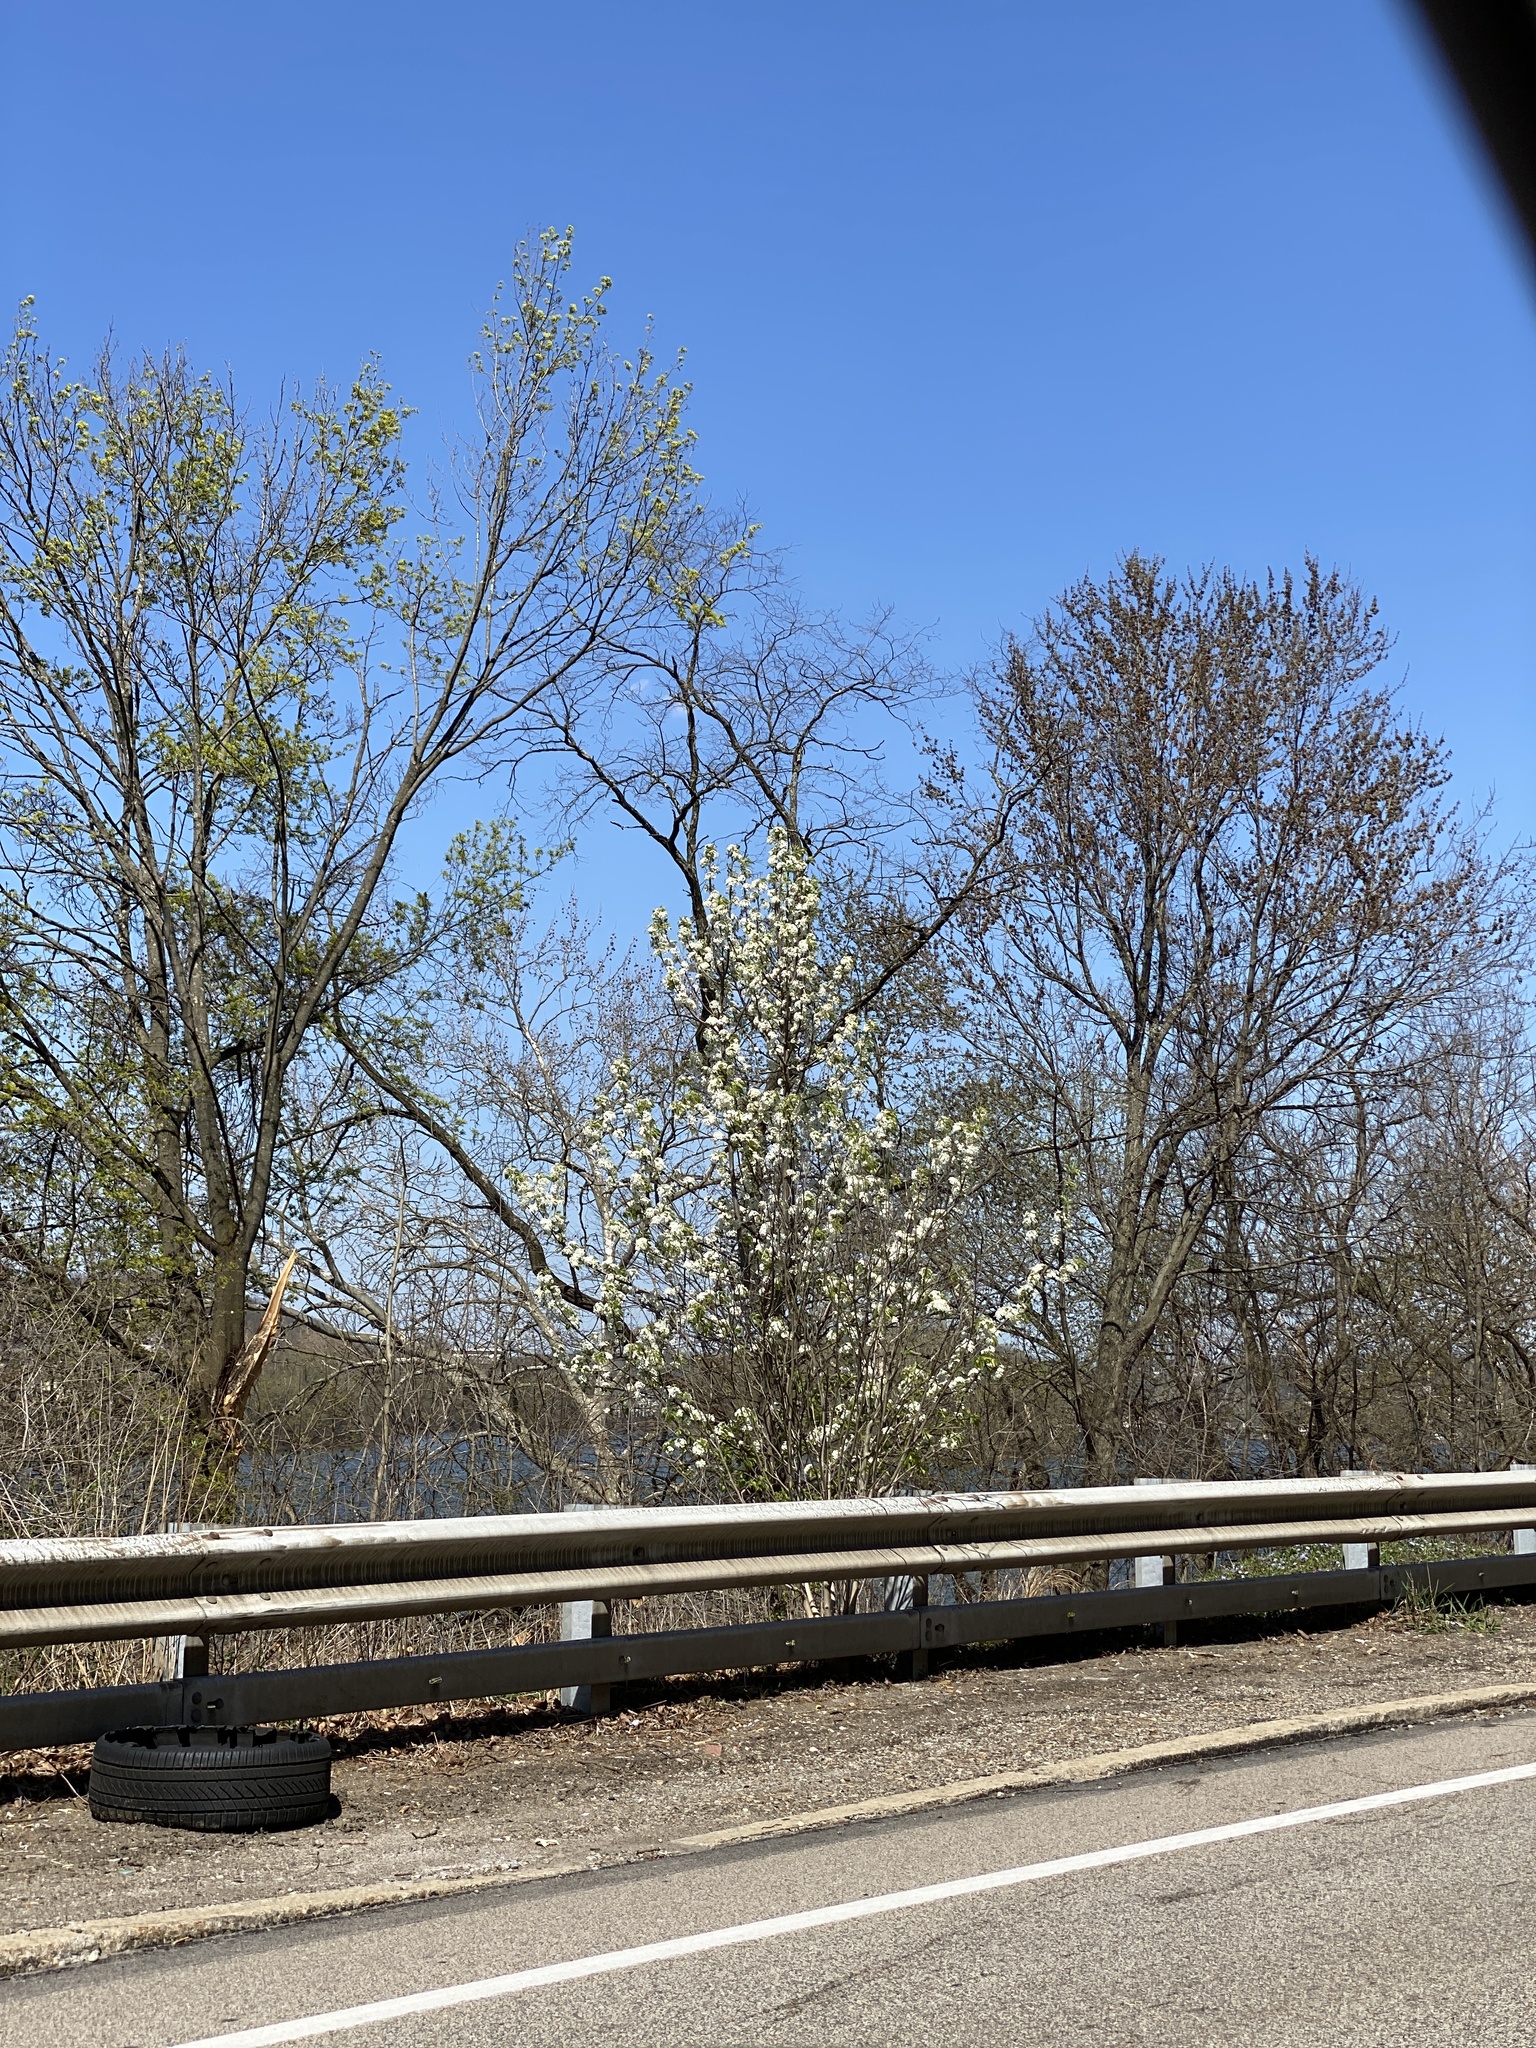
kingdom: Plantae
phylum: Tracheophyta
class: Magnoliopsida
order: Rosales
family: Rosaceae
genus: Pyrus
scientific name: Pyrus calleryana
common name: Callery pear
